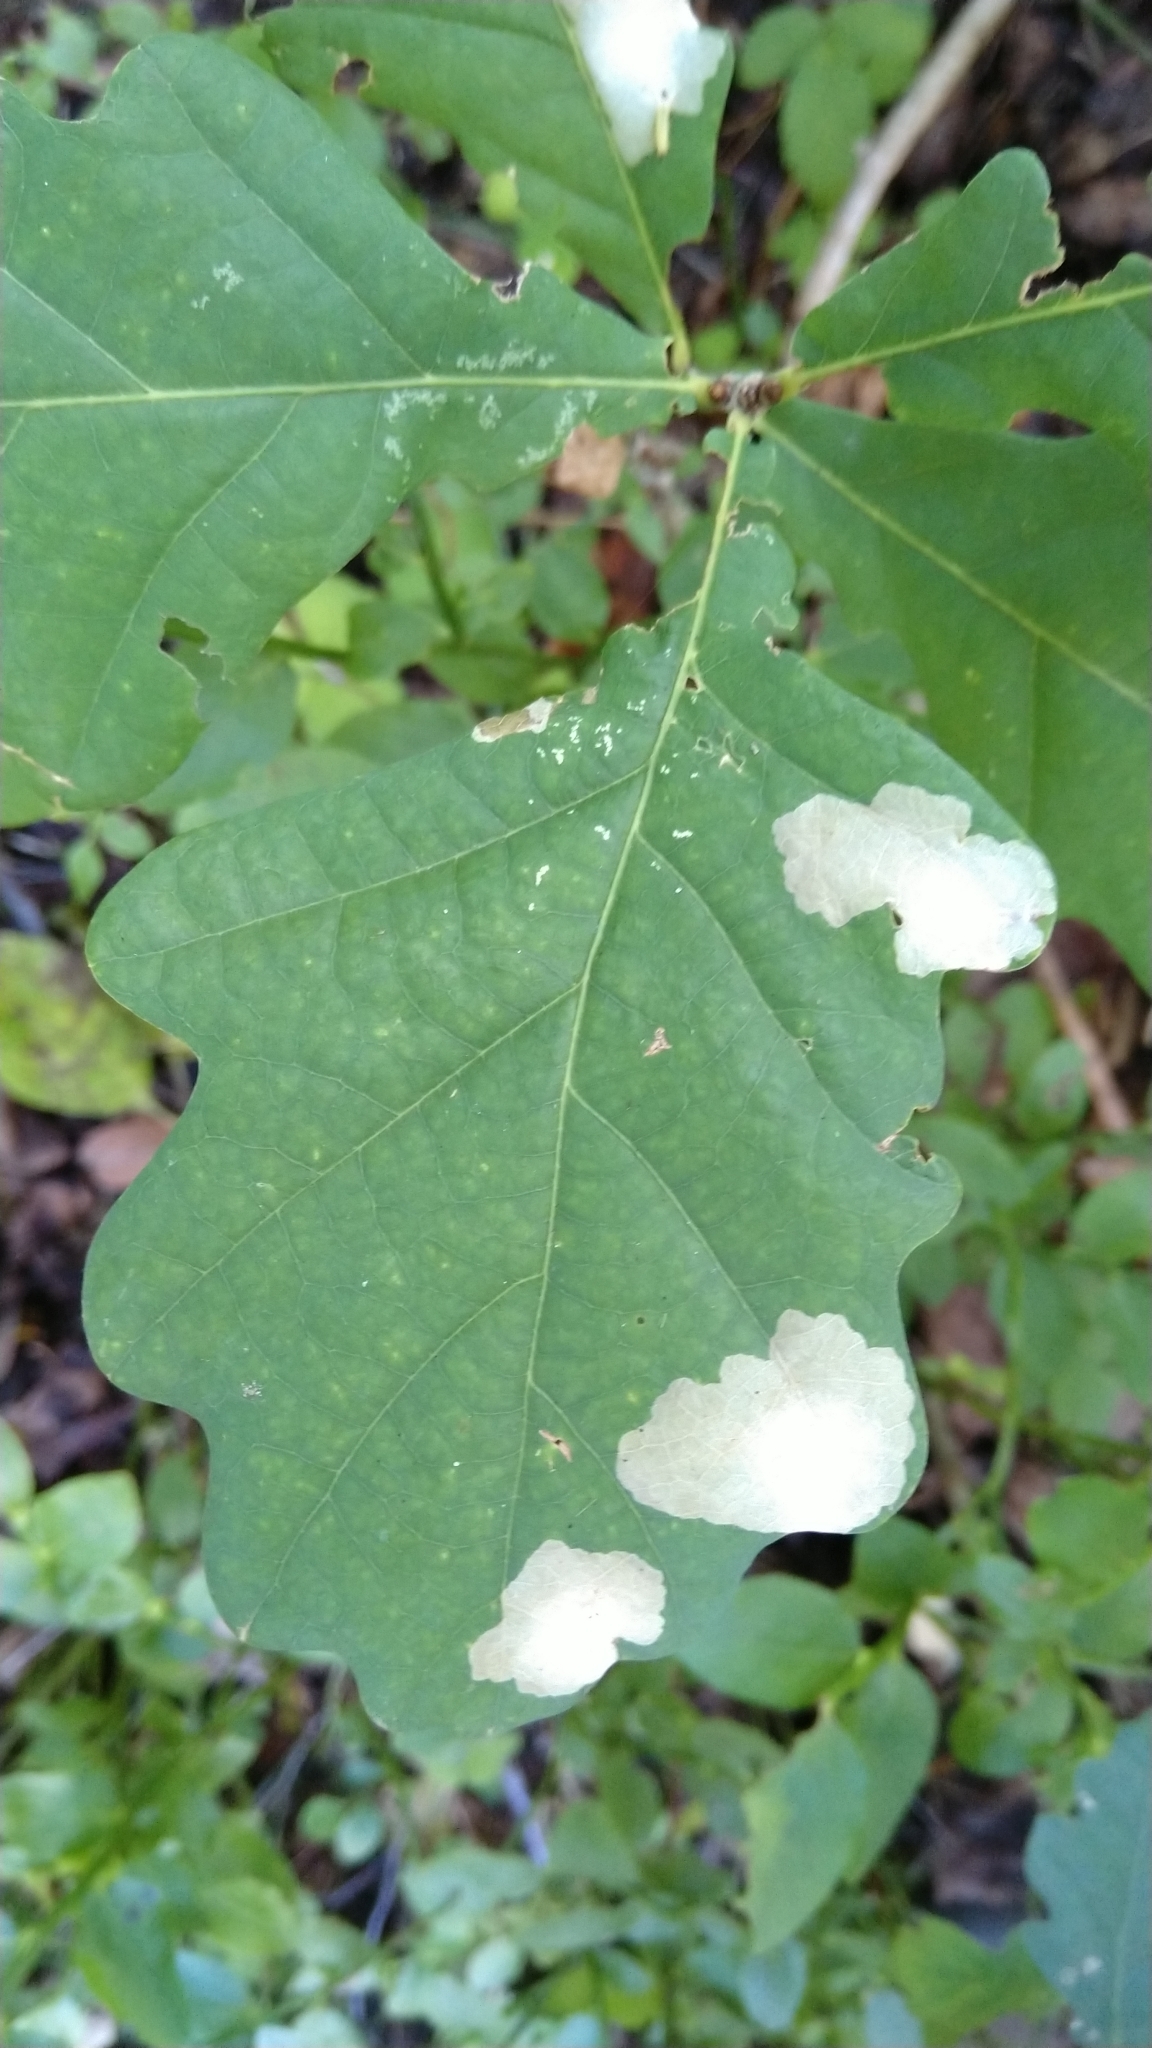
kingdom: Animalia
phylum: Arthropoda
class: Insecta
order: Lepidoptera
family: Tischeriidae
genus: Tischeria
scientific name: Tischeria ekebladella
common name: Oak carl
